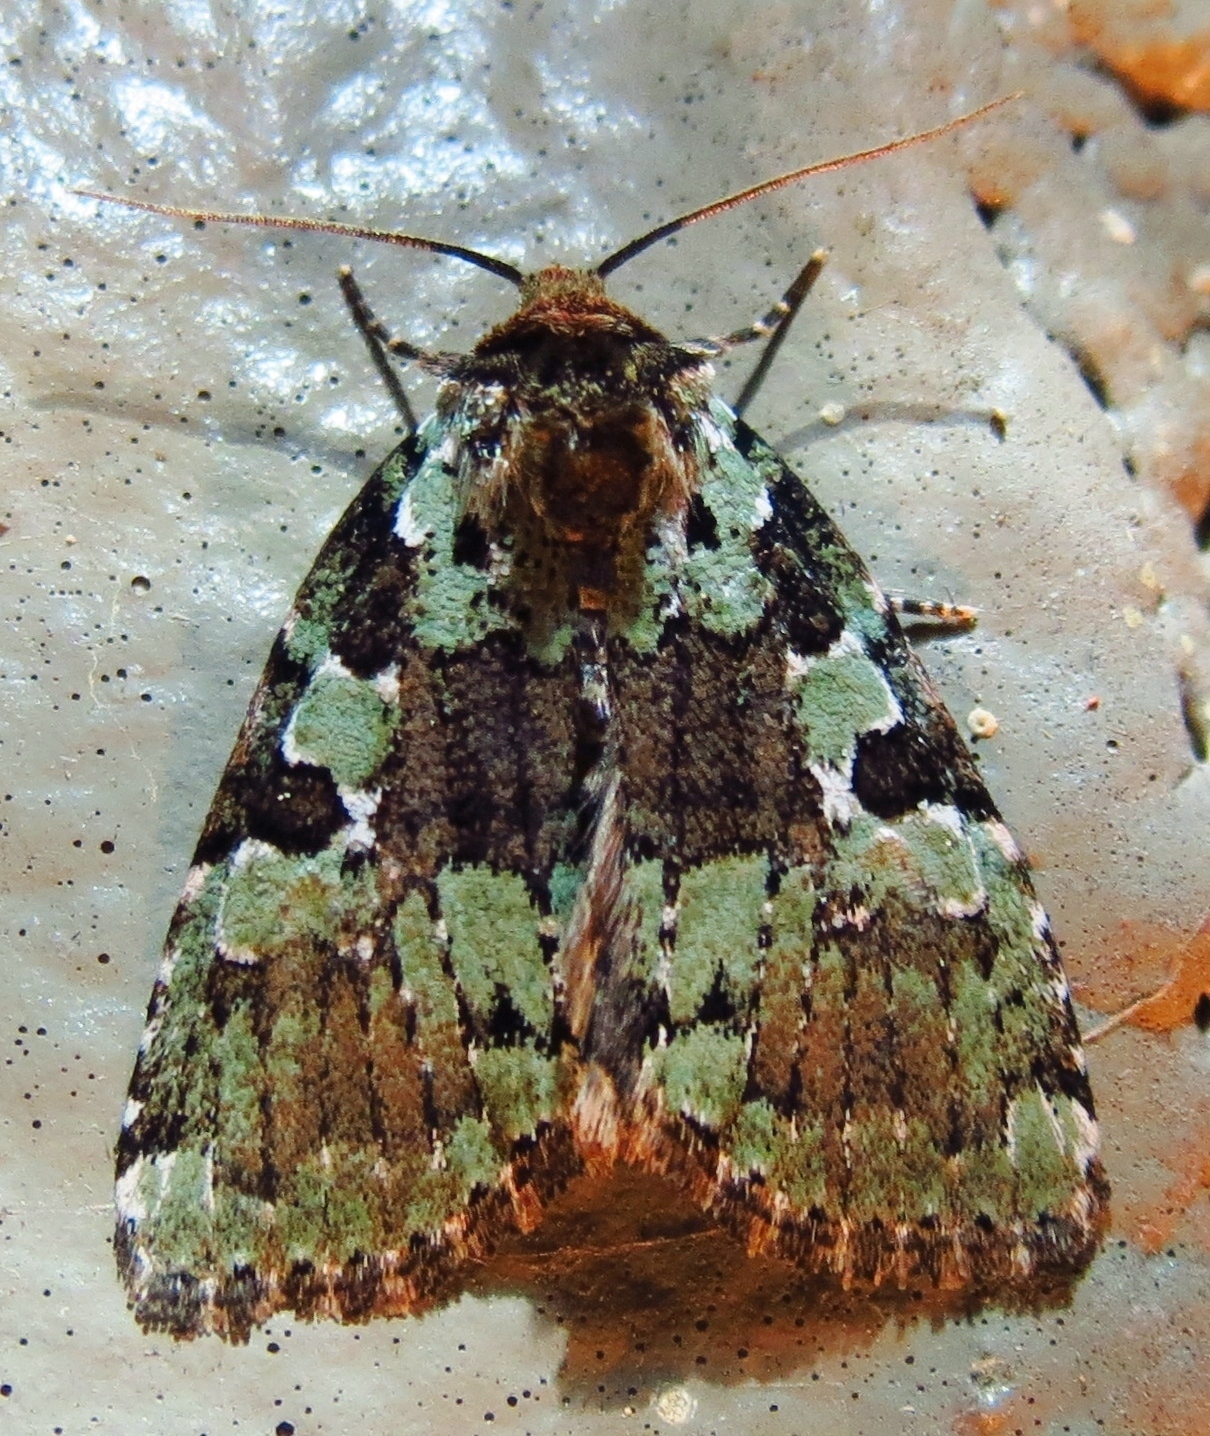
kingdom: Animalia
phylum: Arthropoda
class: Insecta
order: Lepidoptera
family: Noctuidae
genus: Leuconycta
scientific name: Leuconycta lepidula
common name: Marbled-green leuconycta moth
